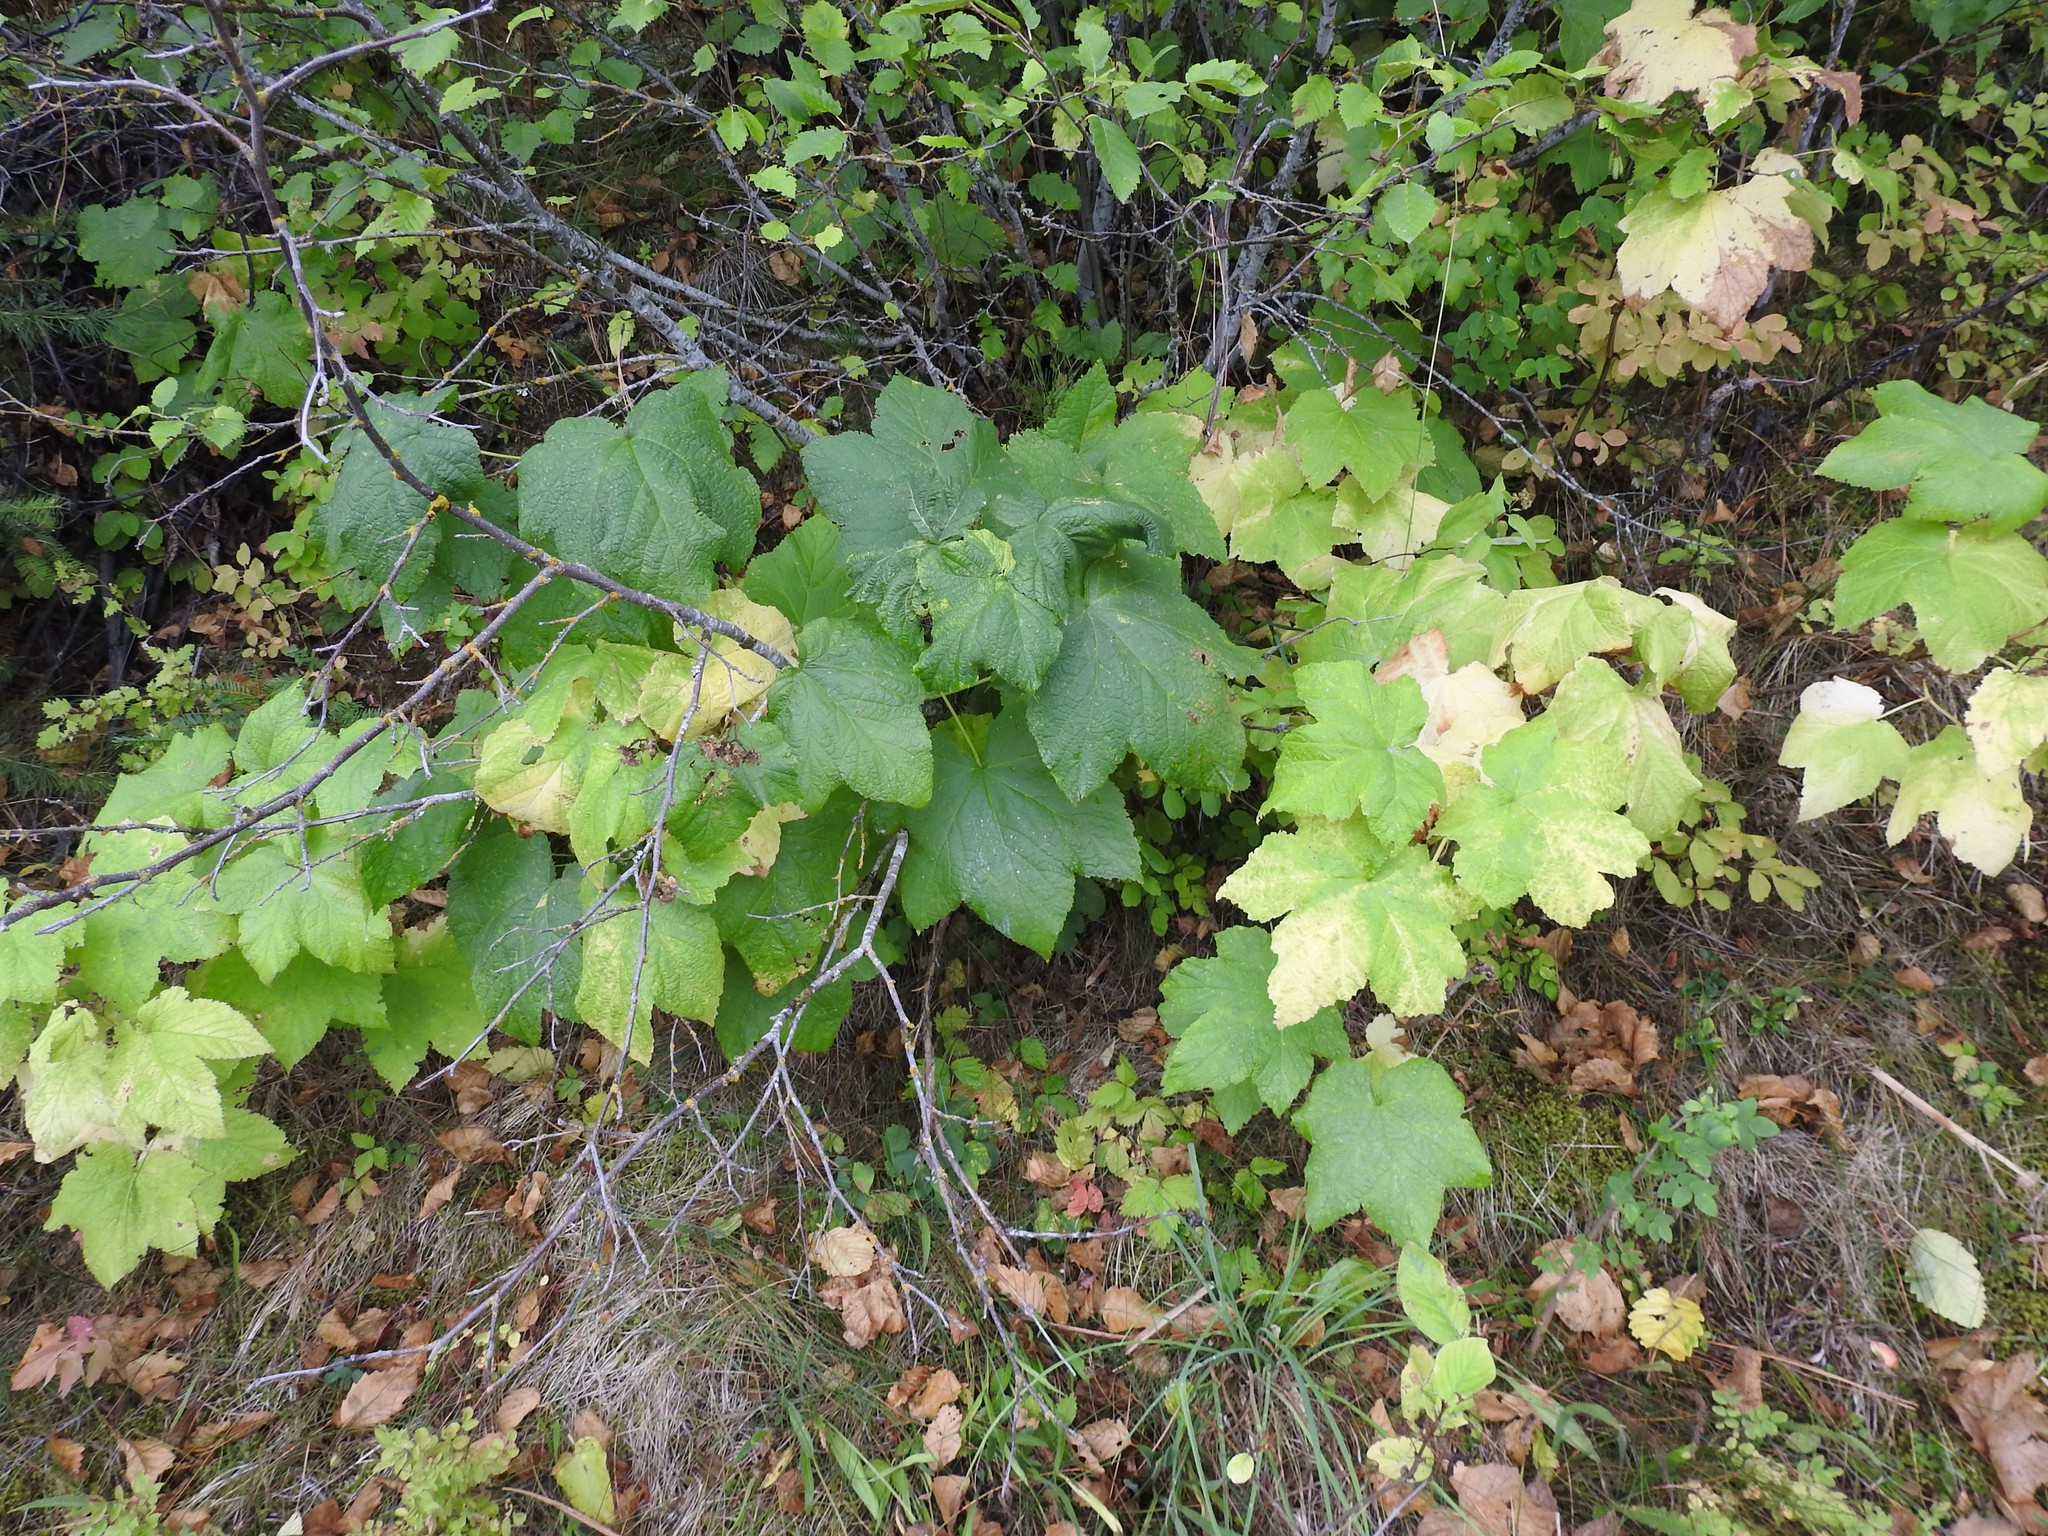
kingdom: Plantae
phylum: Tracheophyta
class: Magnoliopsida
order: Rosales
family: Rosaceae
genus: Rubus
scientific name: Rubus parviflorus
